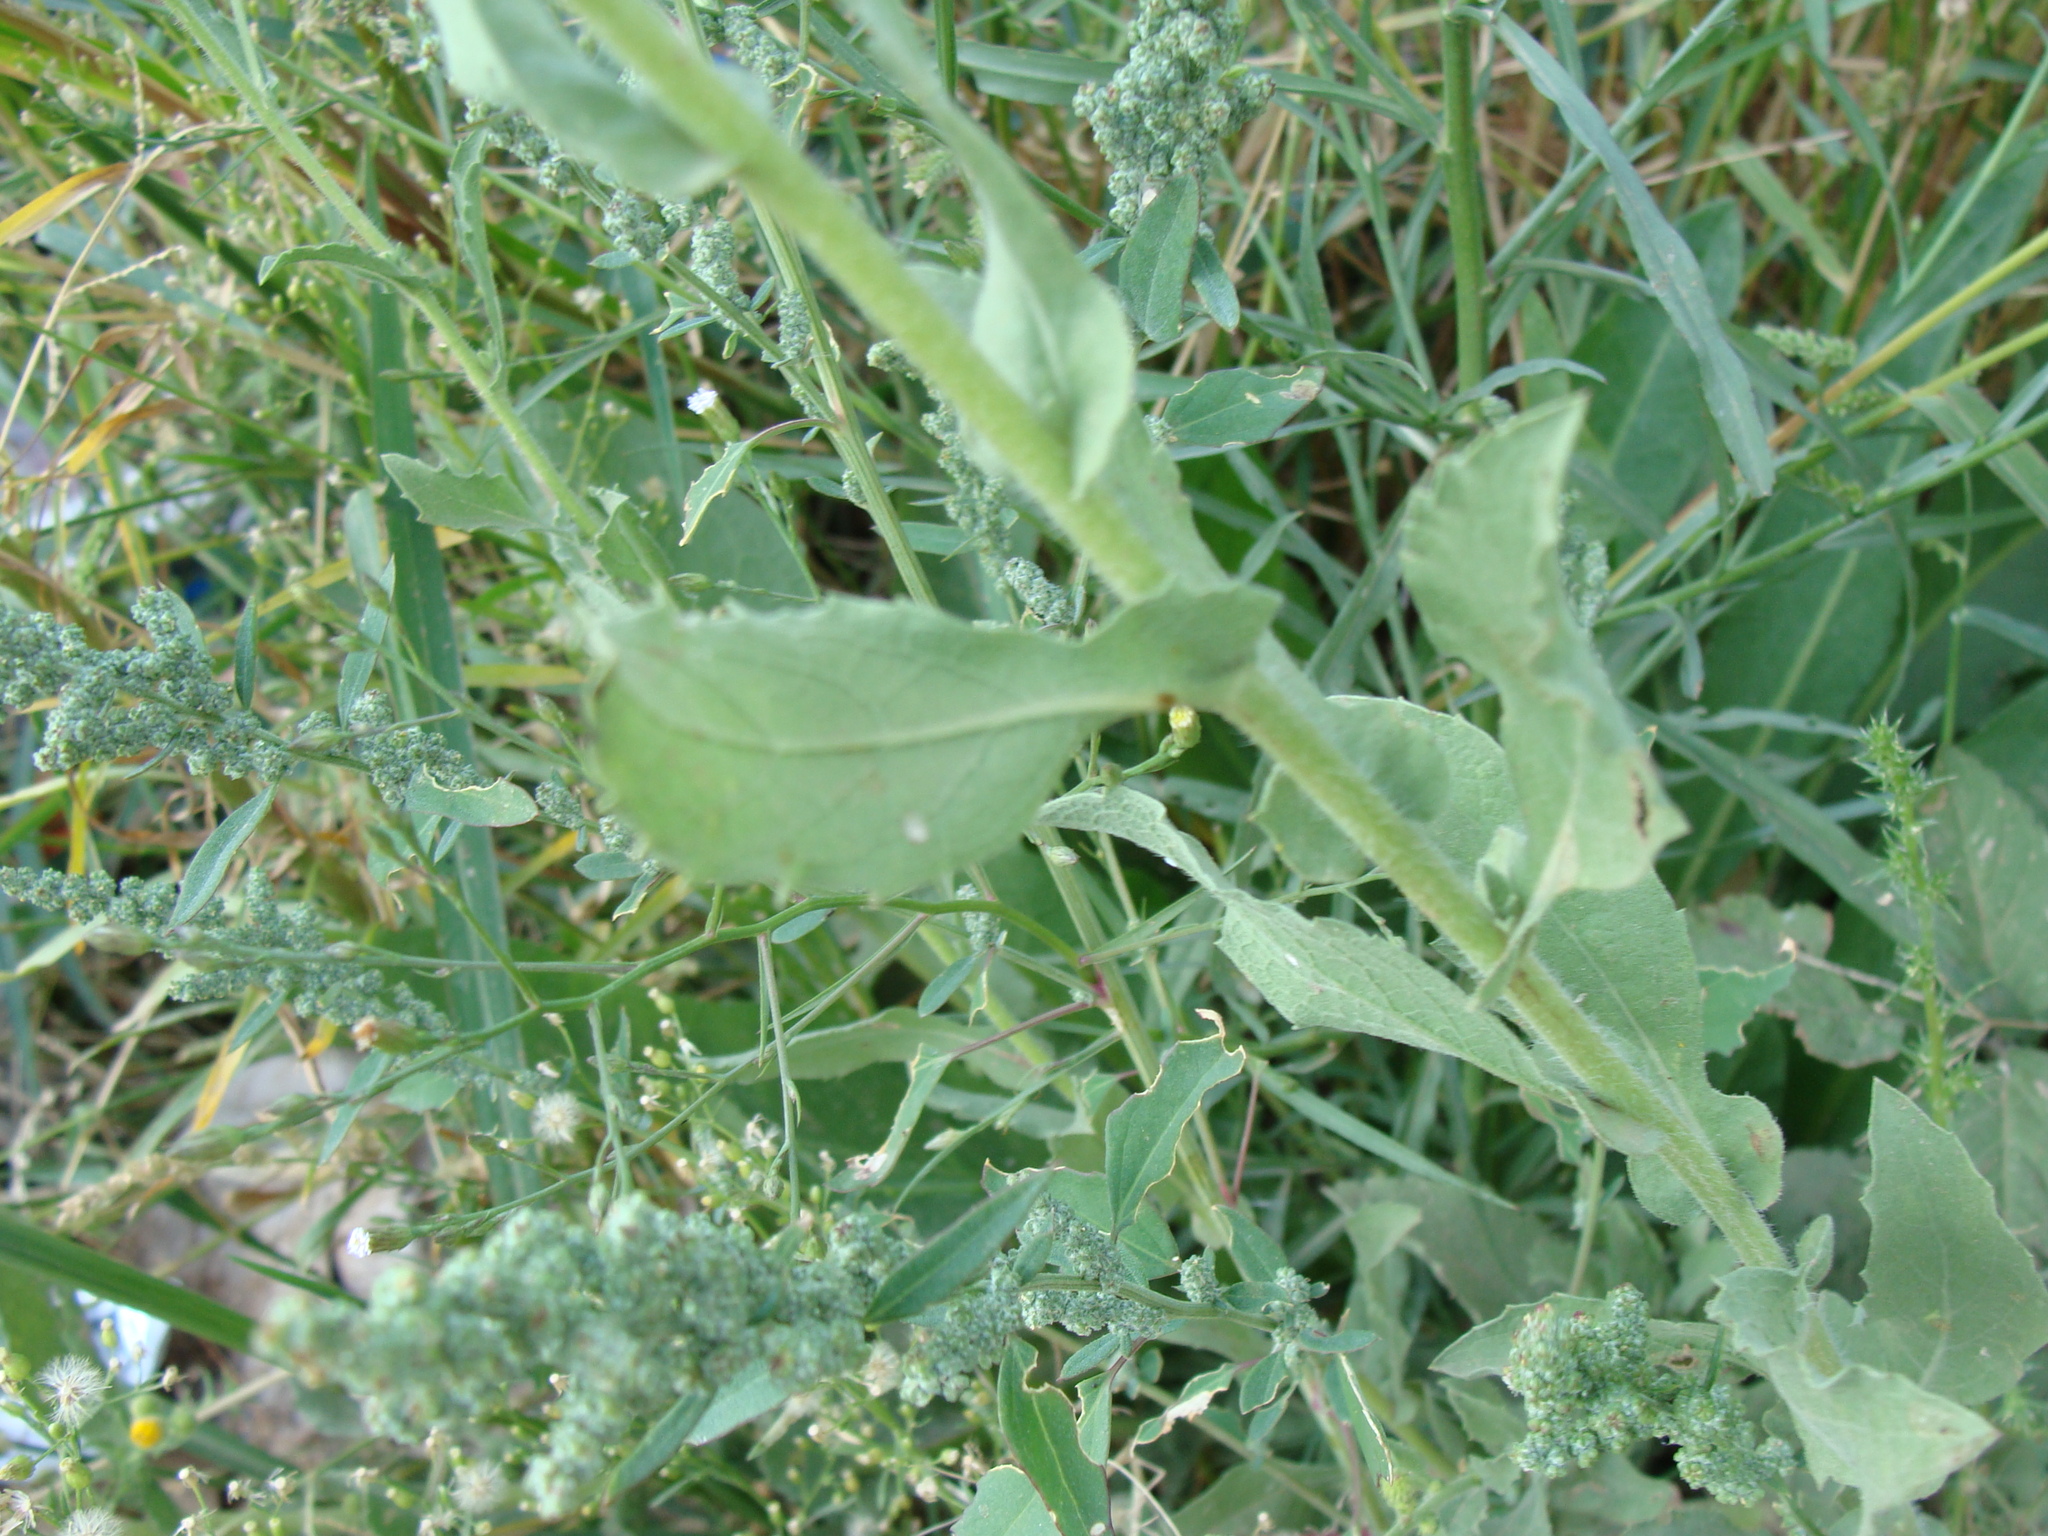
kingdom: Plantae
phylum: Tracheophyta
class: Magnoliopsida
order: Asterales
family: Asteraceae
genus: Heterotheca
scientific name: Heterotheca subaxillaris
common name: Camphorweed
